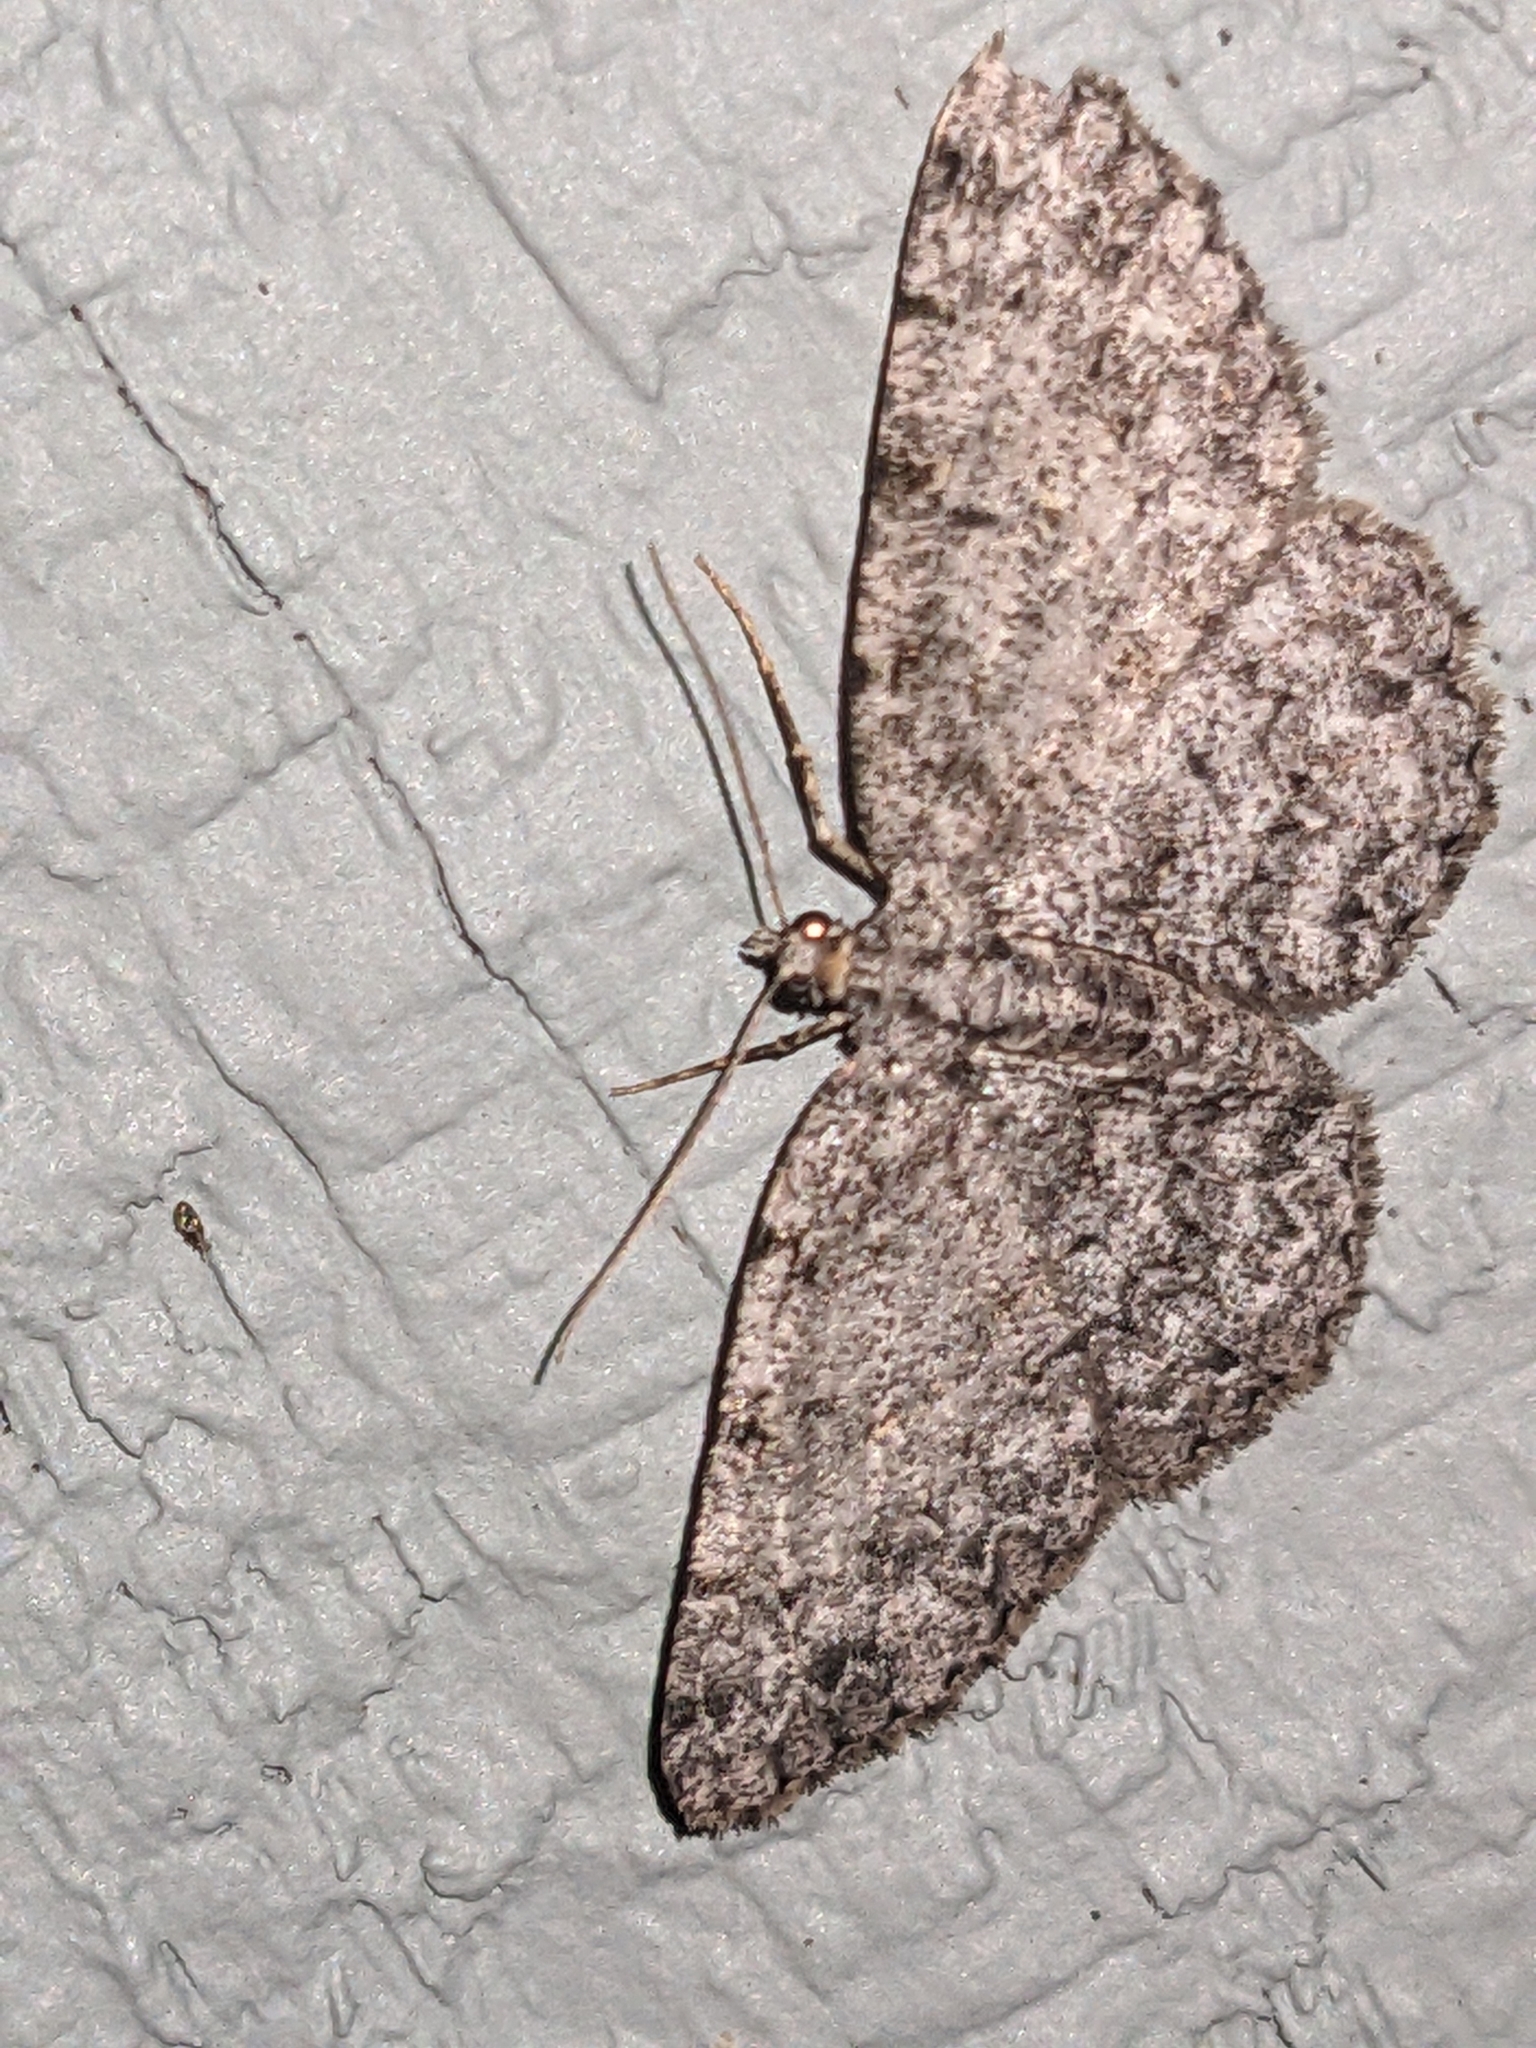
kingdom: Animalia
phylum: Arthropoda
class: Insecta
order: Lepidoptera
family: Geometridae
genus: Protoboarmia
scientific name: Protoboarmia porcelaria
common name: Porcelain gray
